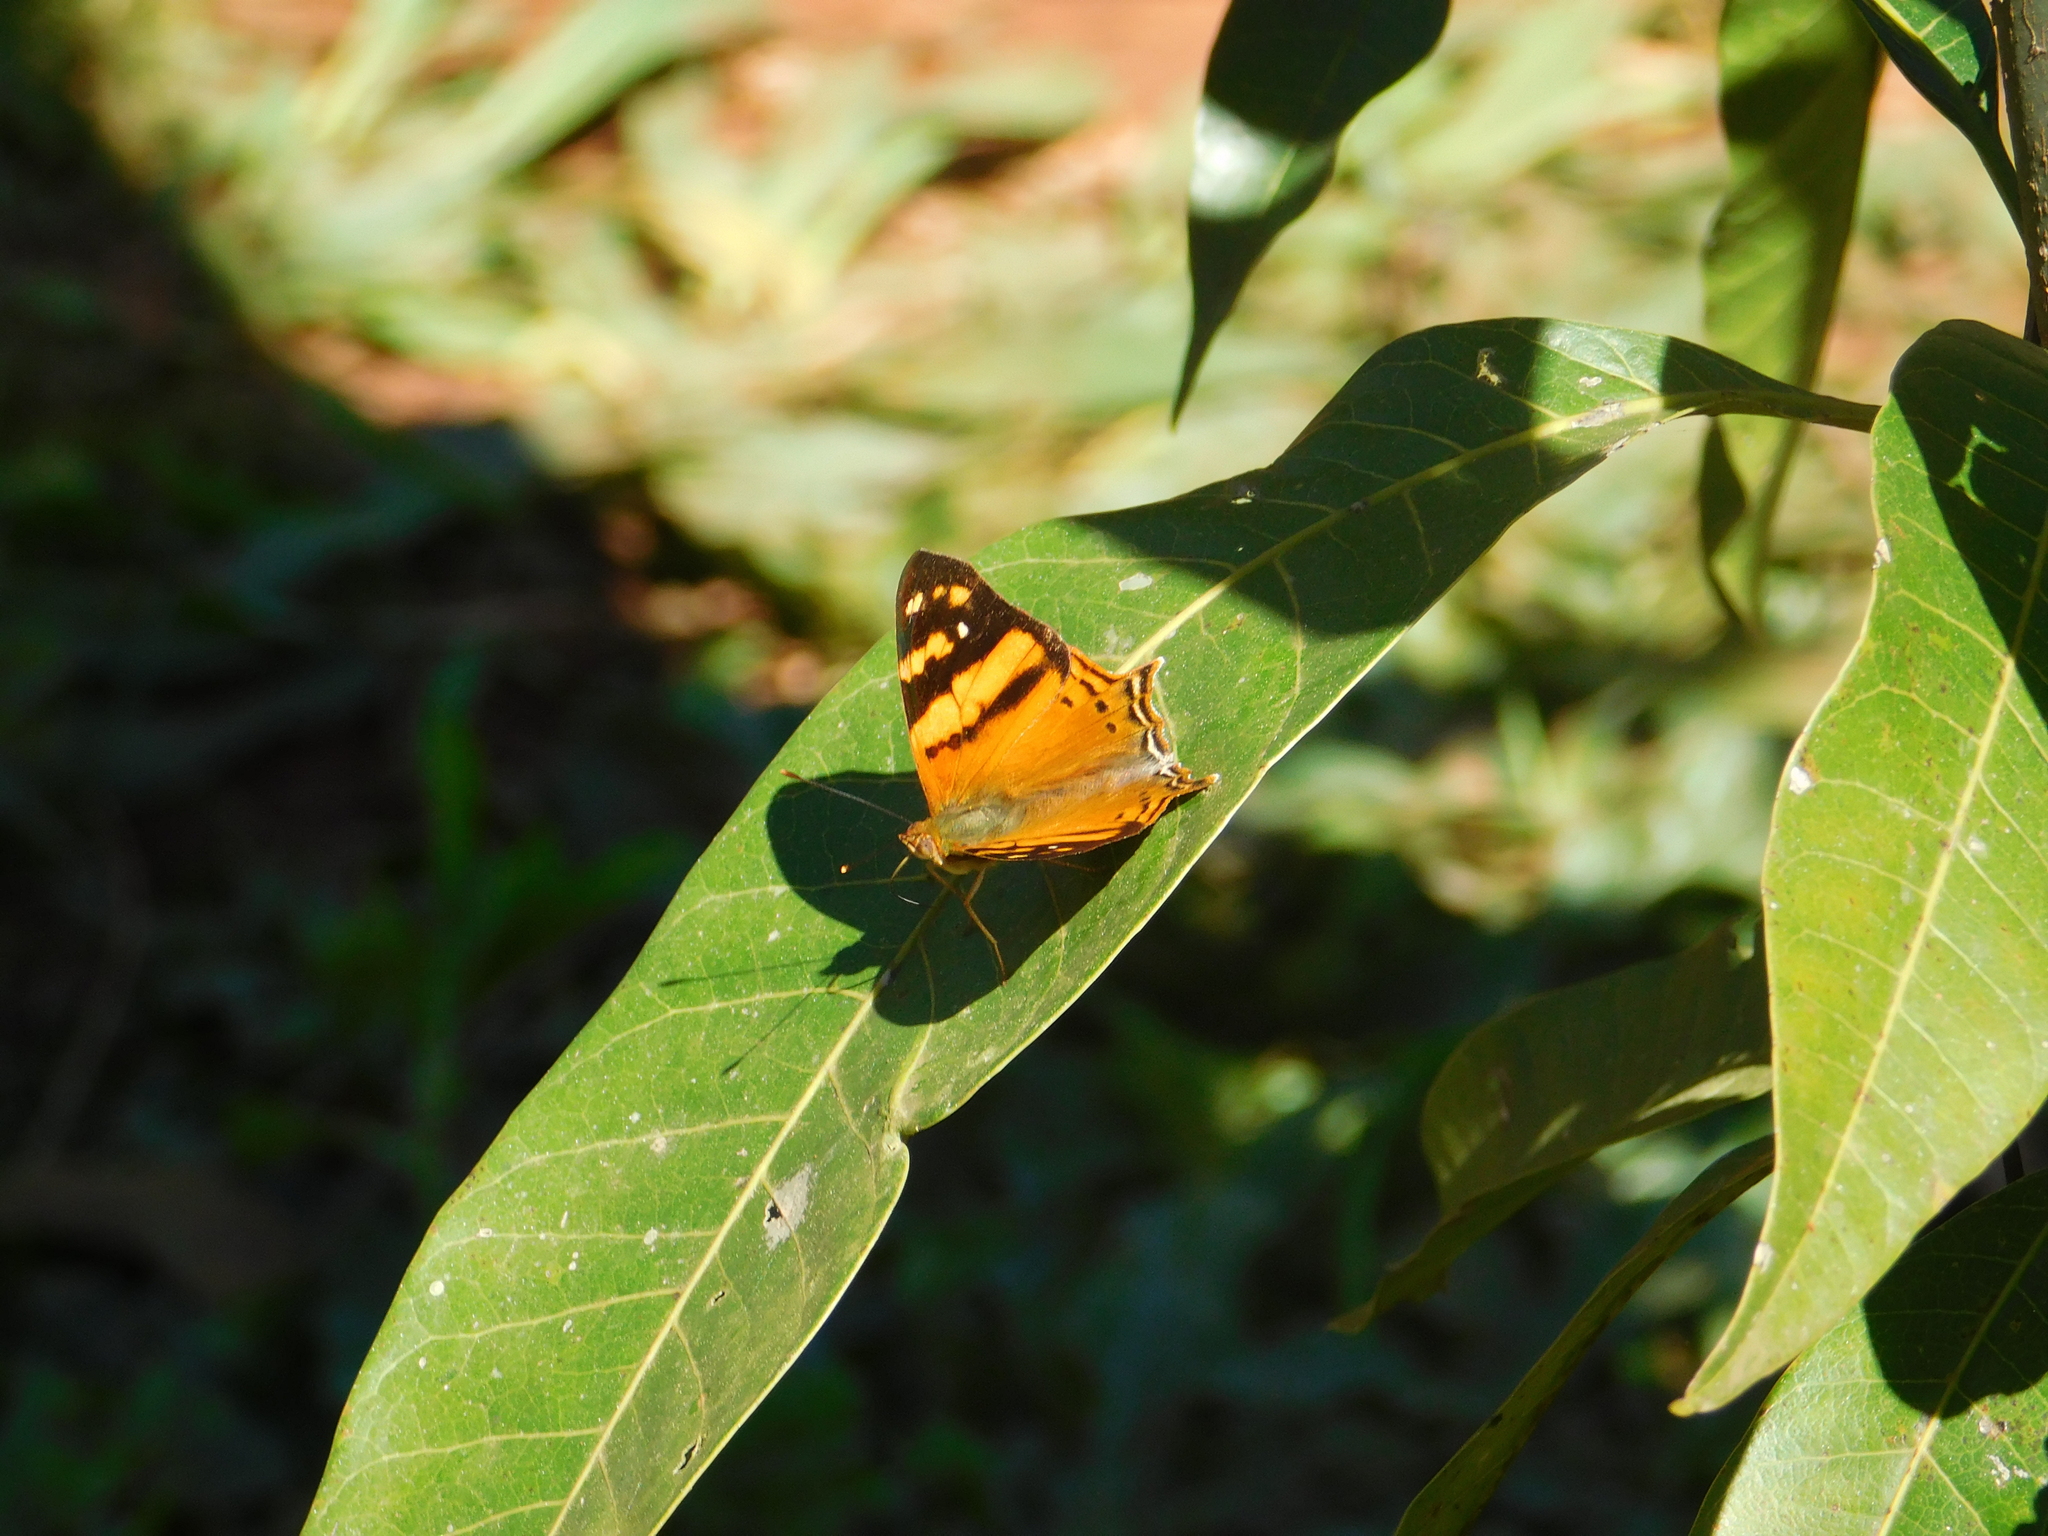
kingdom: Animalia
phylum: Arthropoda
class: Insecta
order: Lepidoptera
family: Nymphalidae
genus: Hypanartia
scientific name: Hypanartia lethe
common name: Orange mapwing
